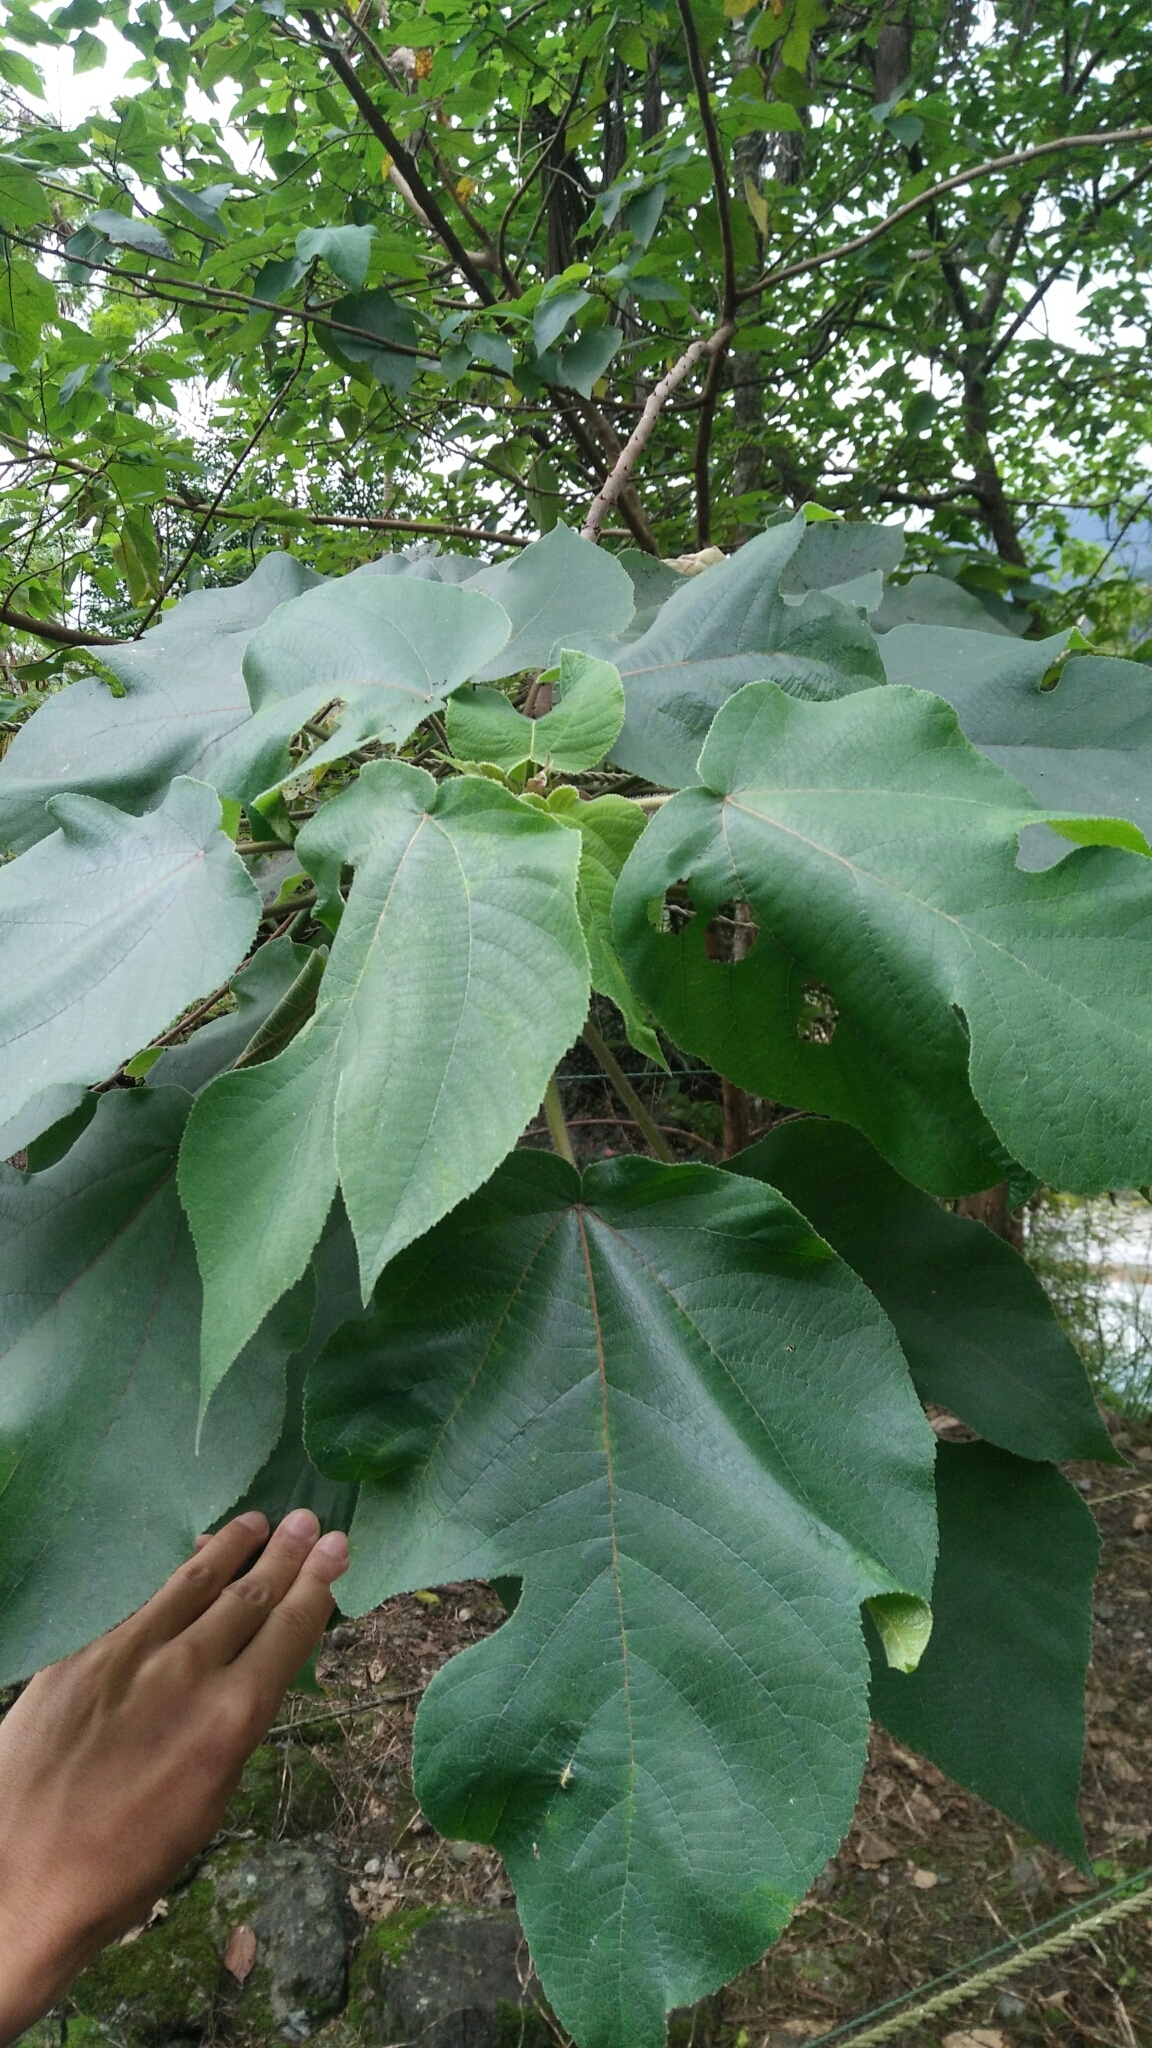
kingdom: Plantae
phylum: Tracheophyta
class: Magnoliopsida
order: Rosales
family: Moraceae
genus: Broussonetia
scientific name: Broussonetia papyrifera
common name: Paper mulberry
